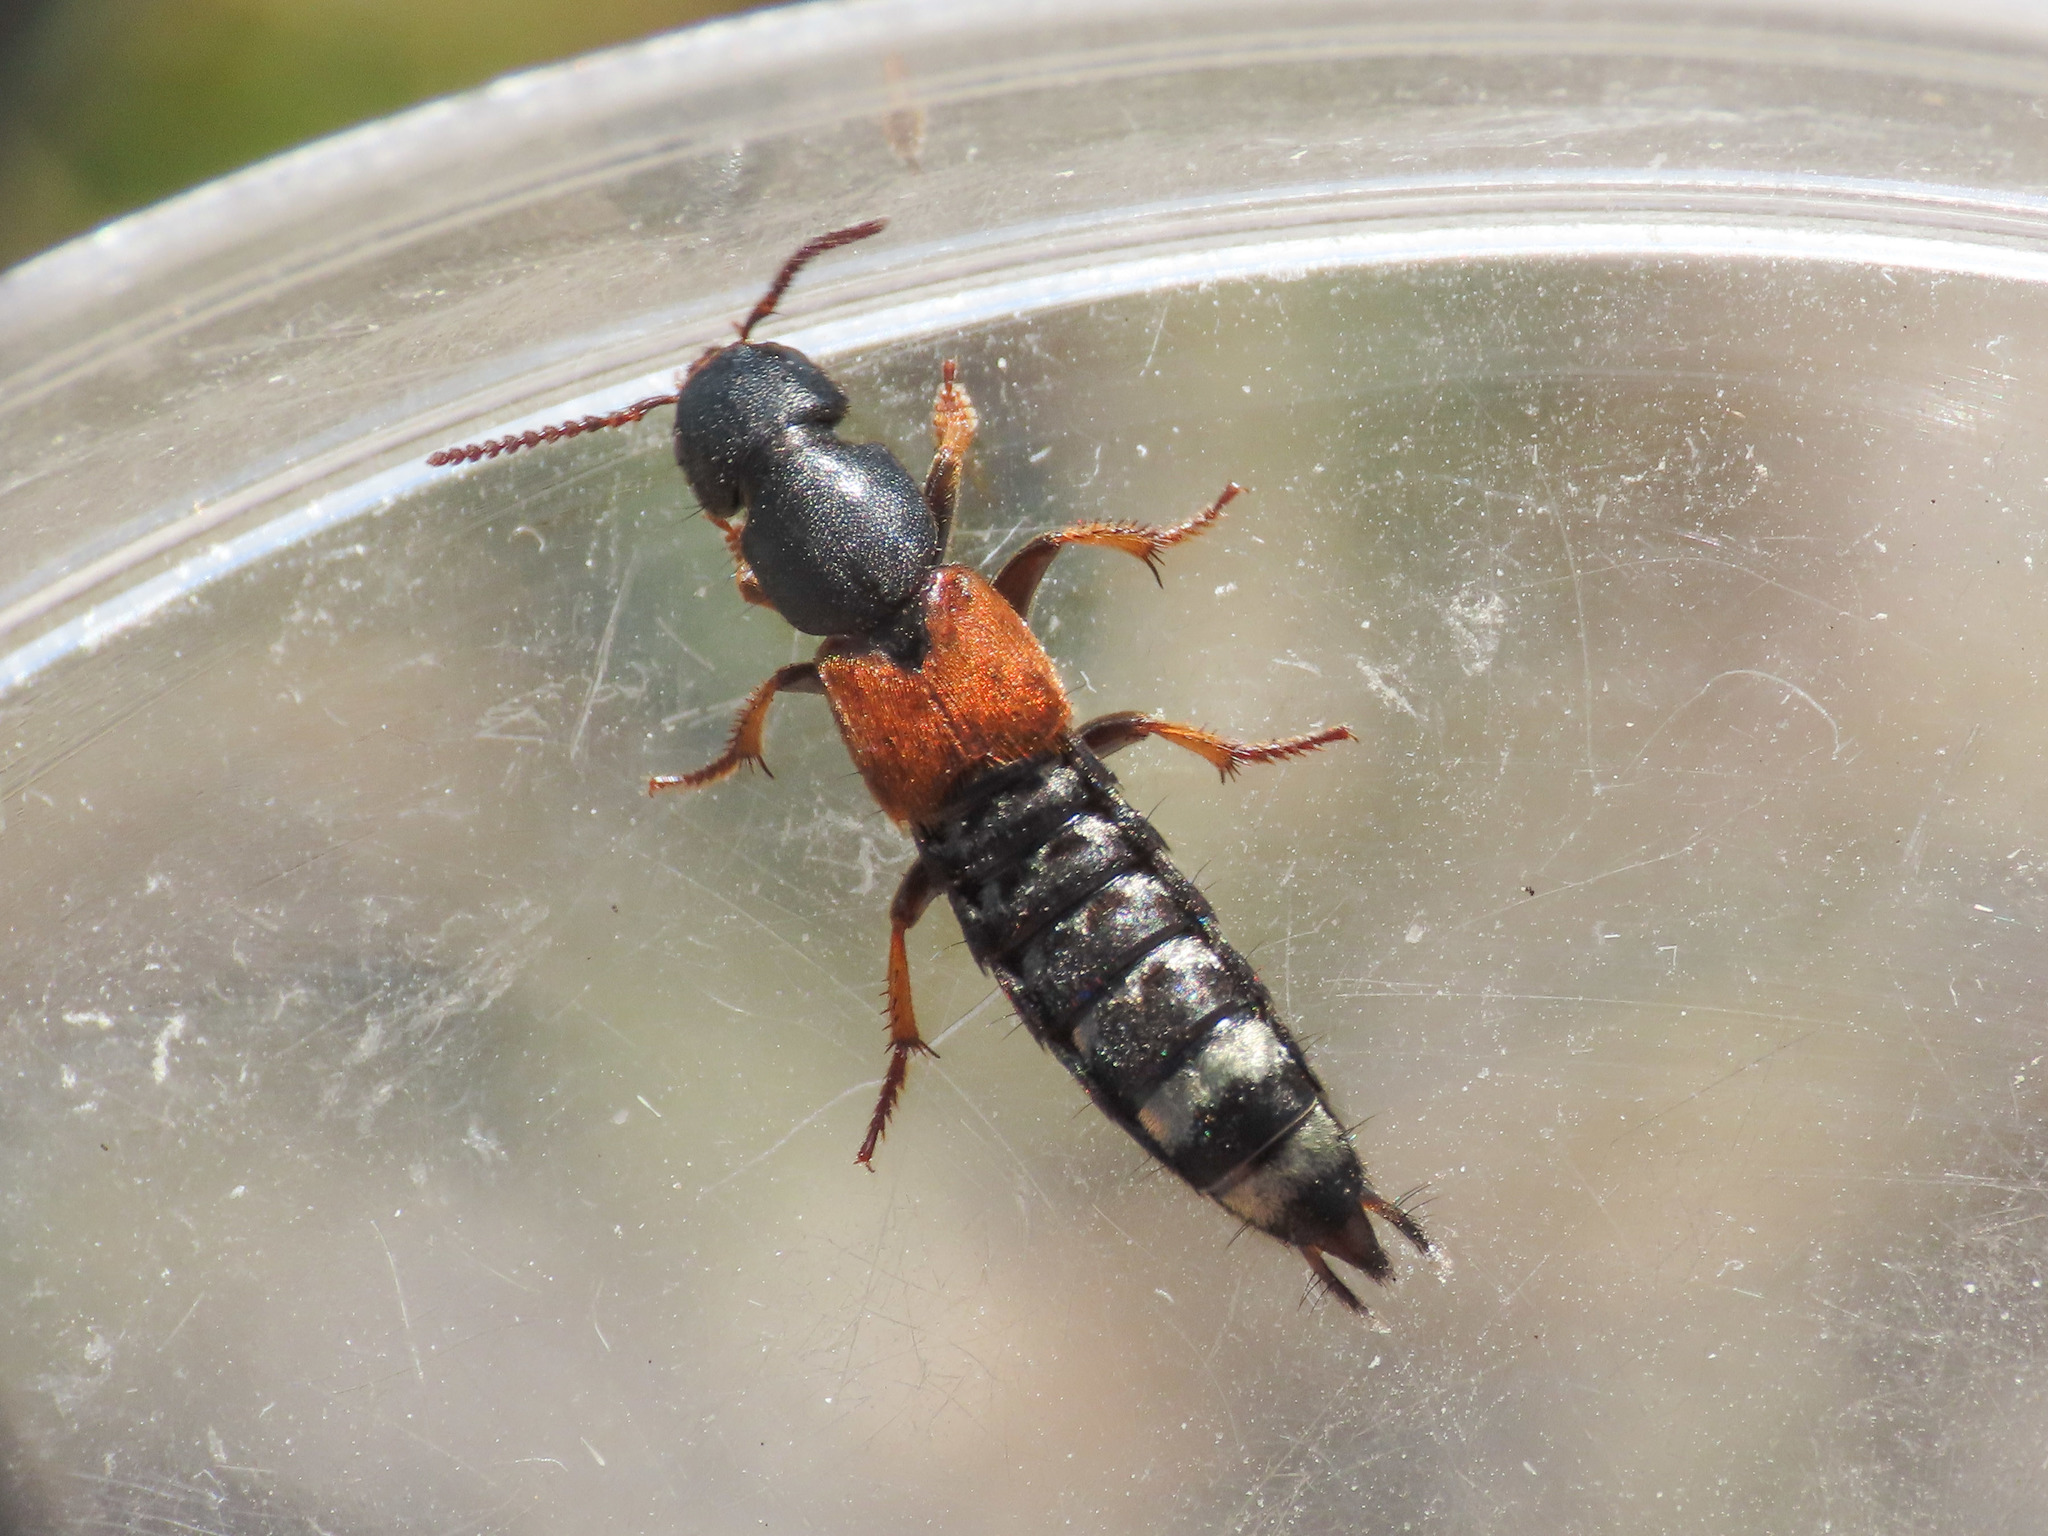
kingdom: Animalia
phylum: Arthropoda
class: Insecta
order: Coleoptera
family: Staphylinidae
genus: Platydracus
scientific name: Platydracus stercorarius
